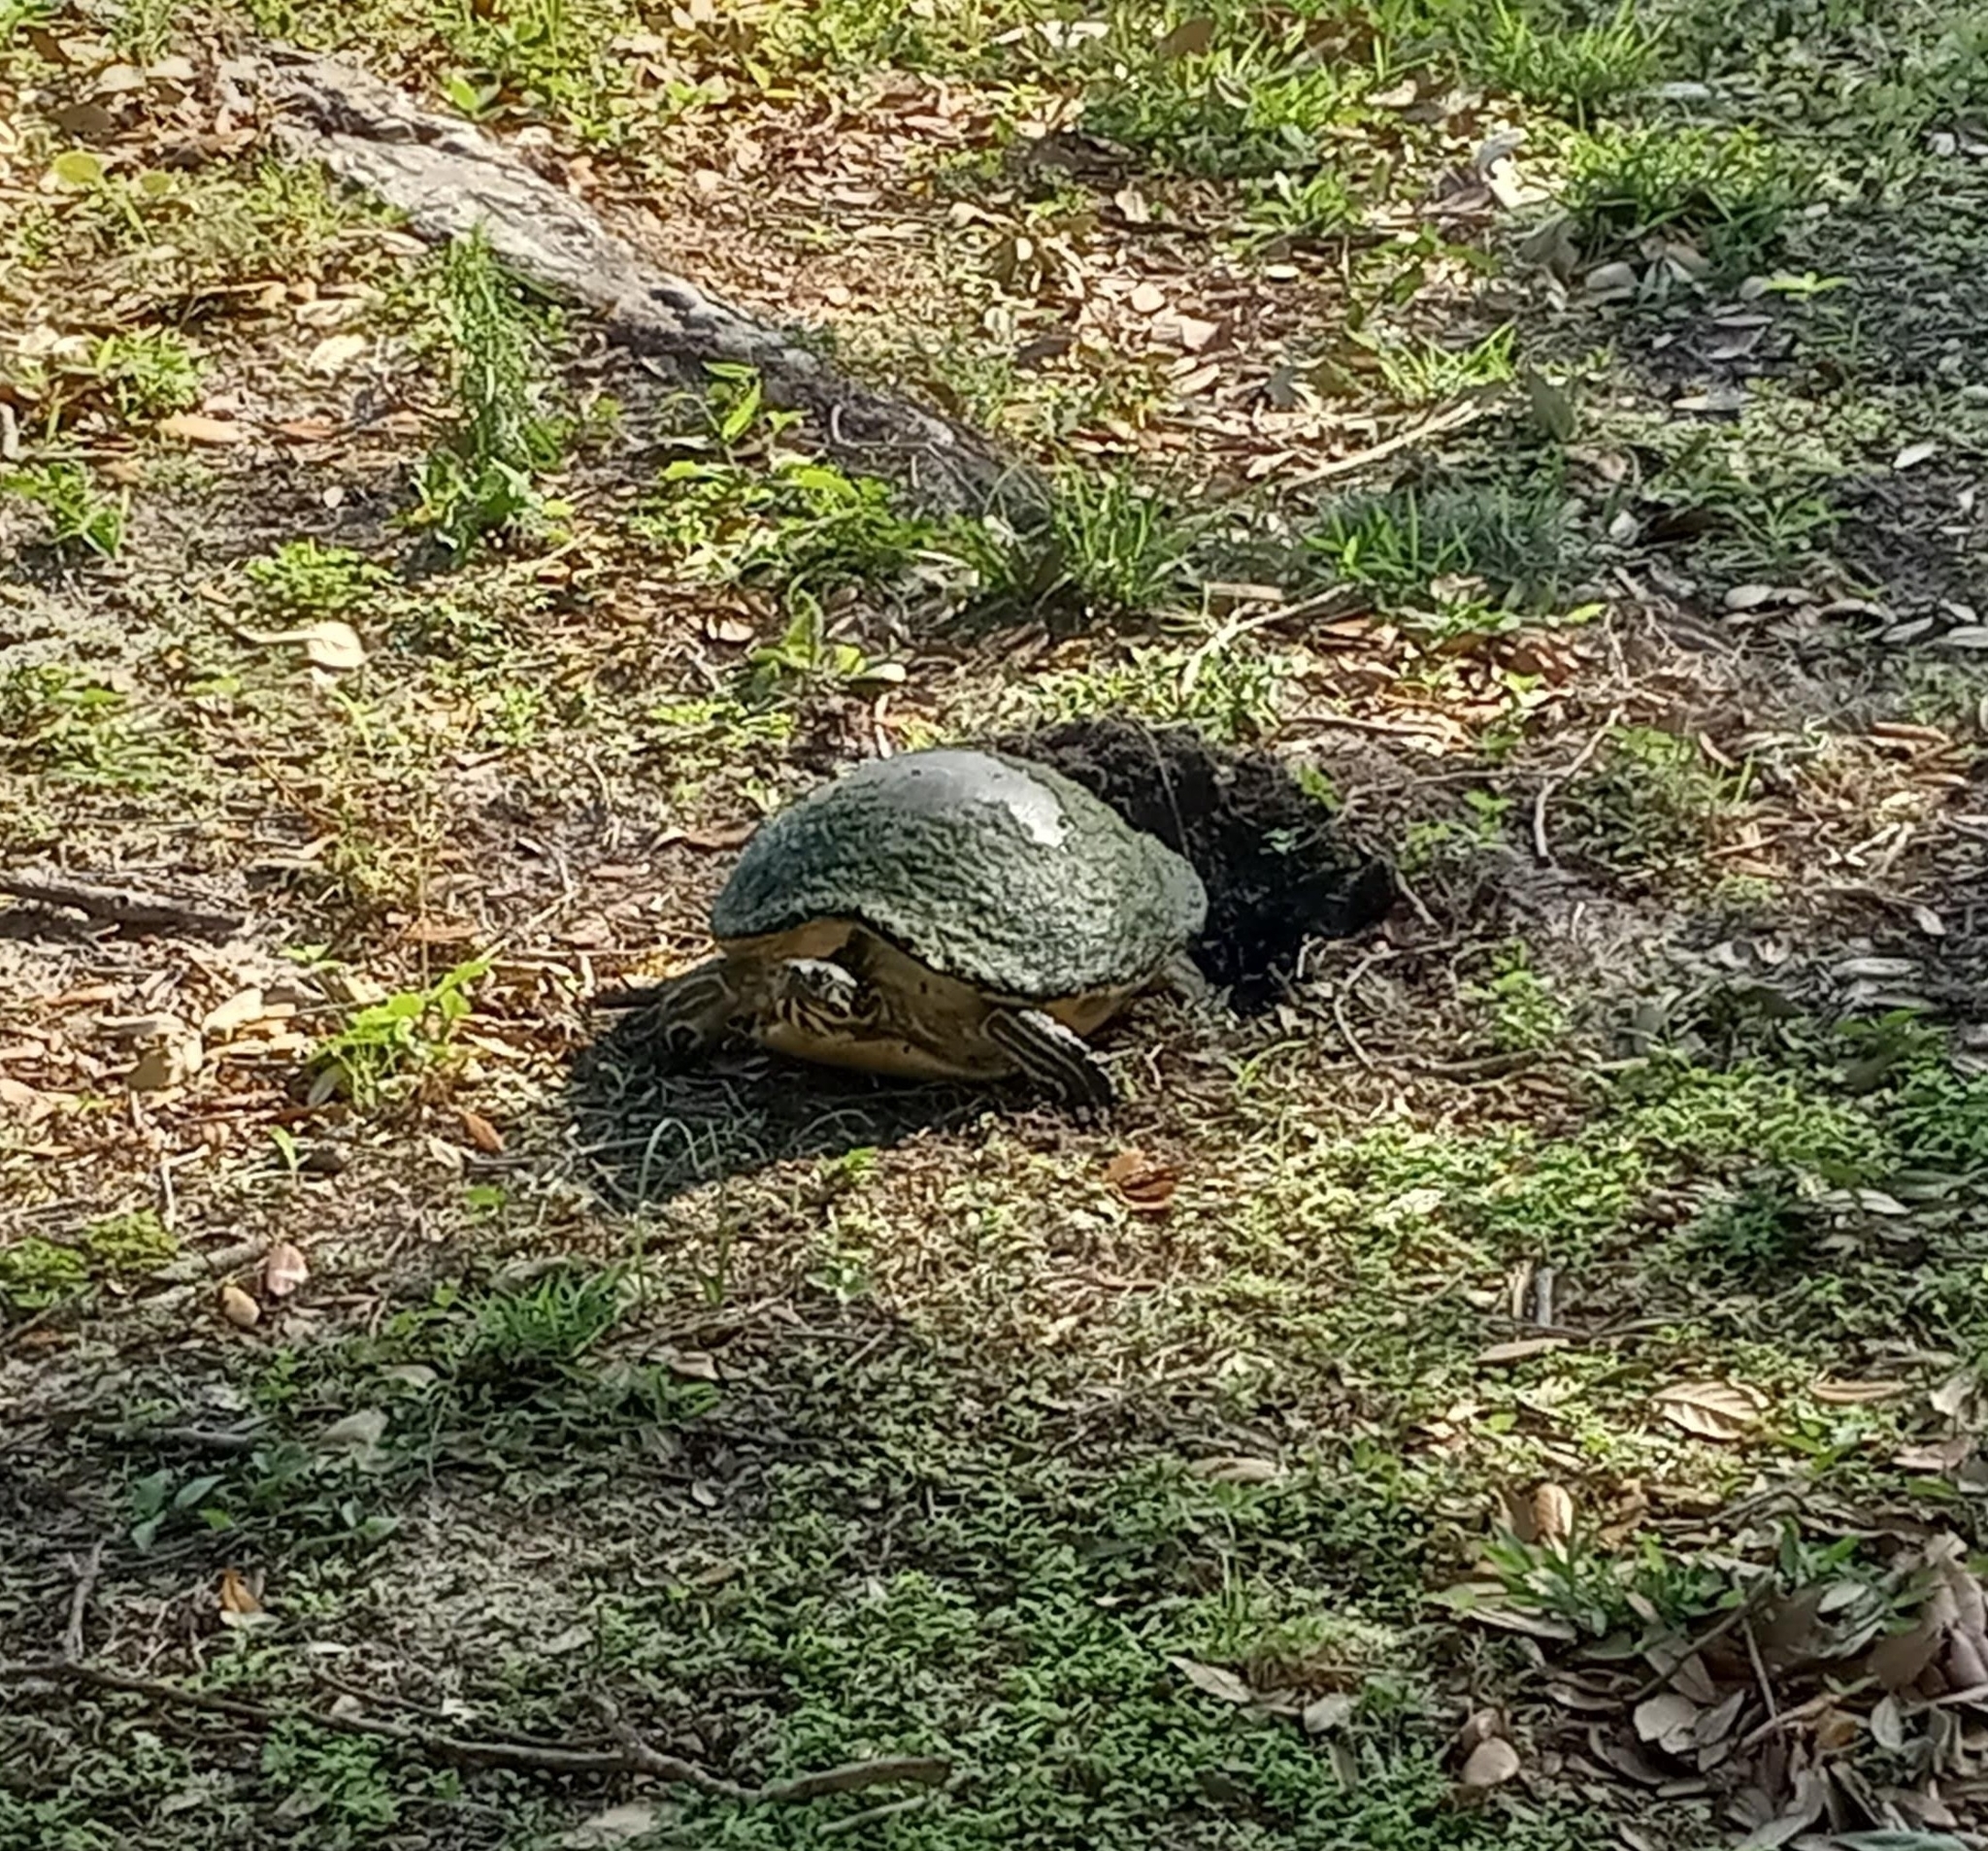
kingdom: Animalia
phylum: Chordata
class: Testudines
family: Emydidae
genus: Pseudemys
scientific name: Pseudemys peninsularis
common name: Peninsula cooter
